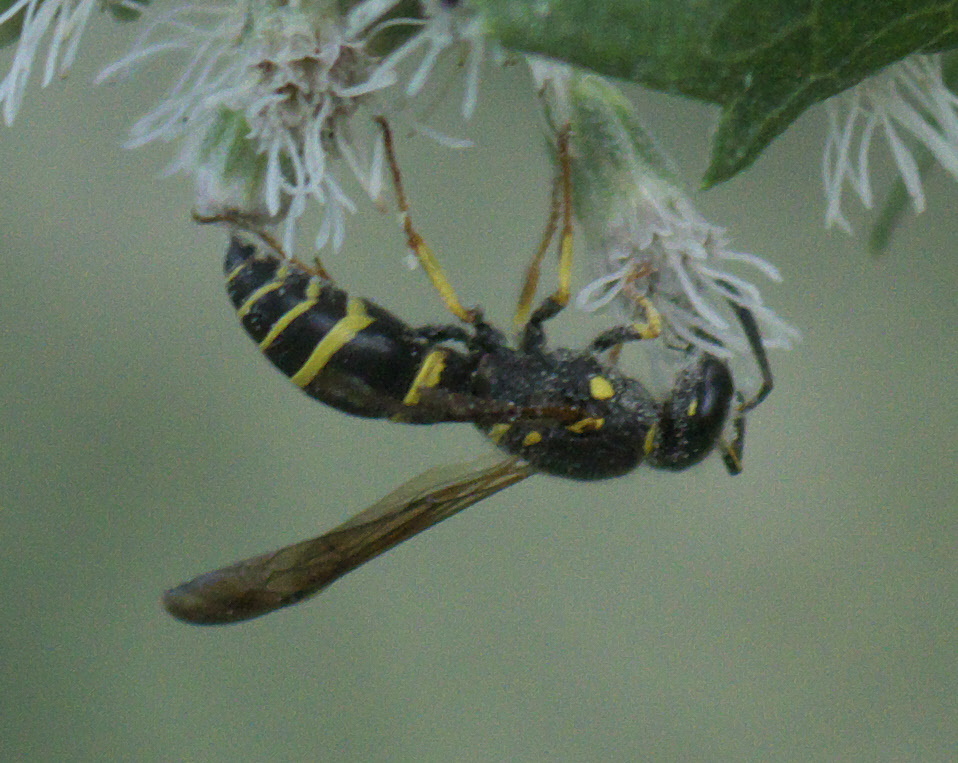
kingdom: Animalia
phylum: Arthropoda
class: Insecta
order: Hymenoptera
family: Vespidae
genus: Ancistrocerus
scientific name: Ancistrocerus adiabatus
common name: Bramble mason wasp
